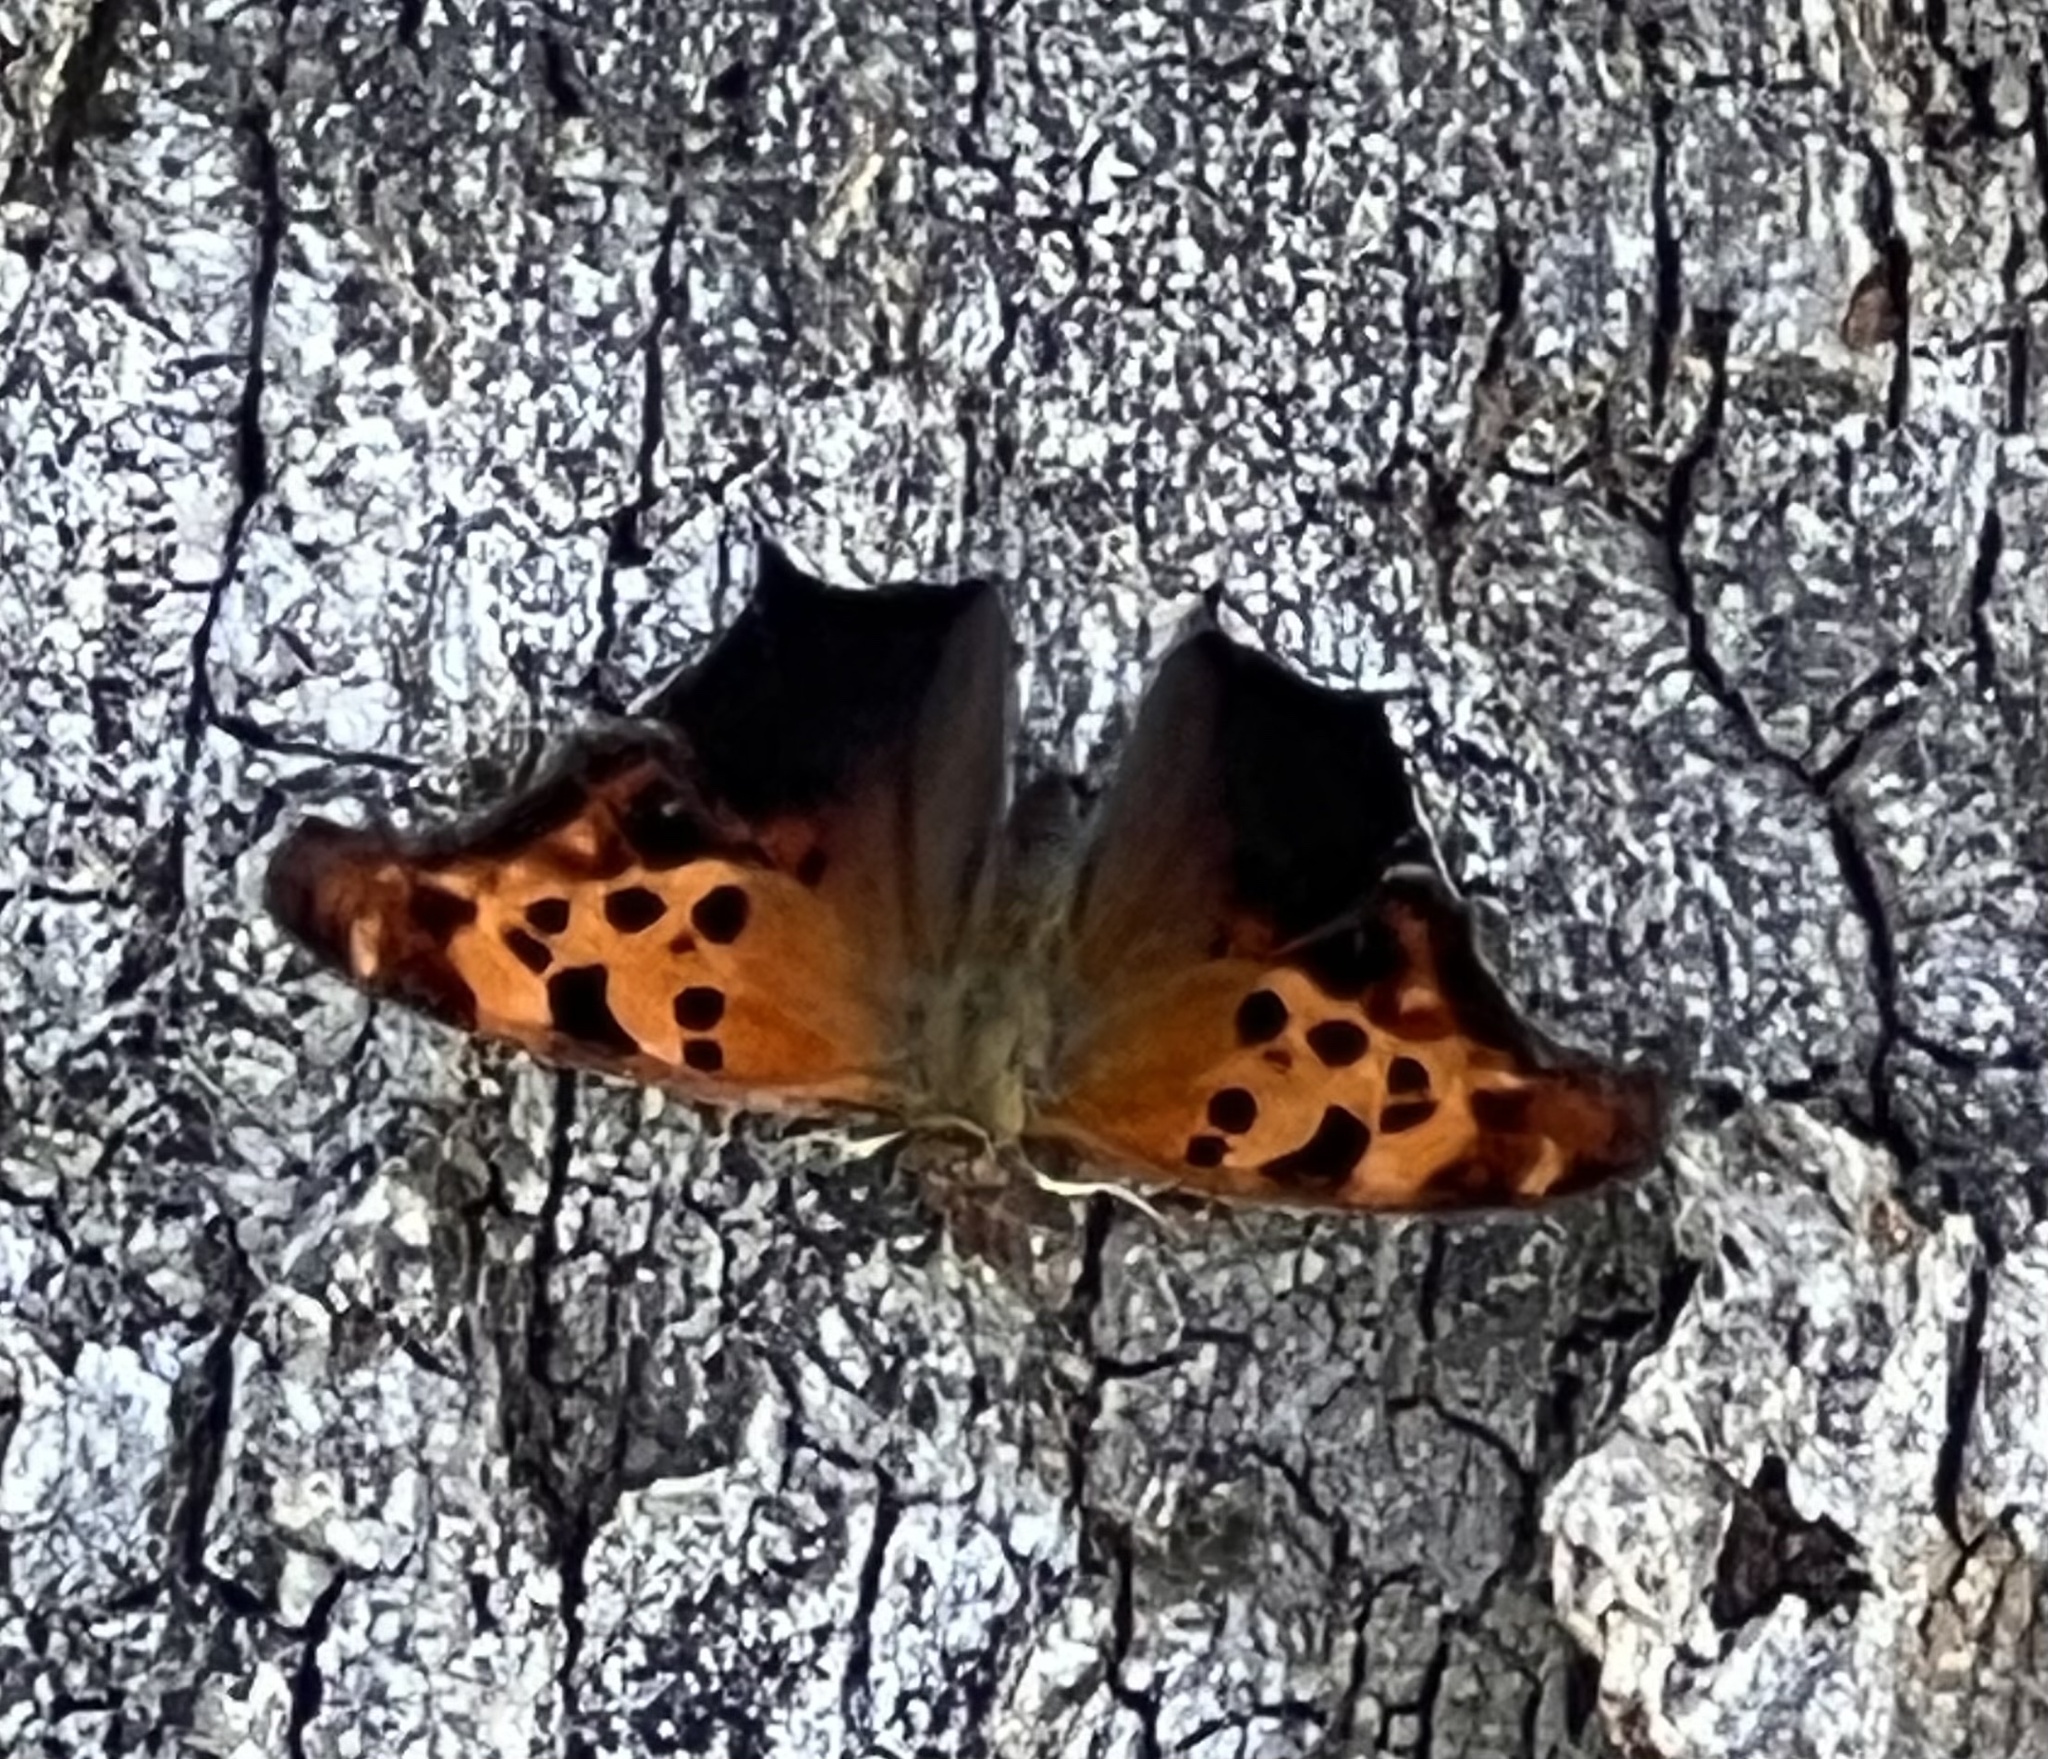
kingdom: Animalia
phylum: Arthropoda
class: Insecta
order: Lepidoptera
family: Nymphalidae
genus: Polygonia
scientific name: Polygonia interrogationis
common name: Question mark
